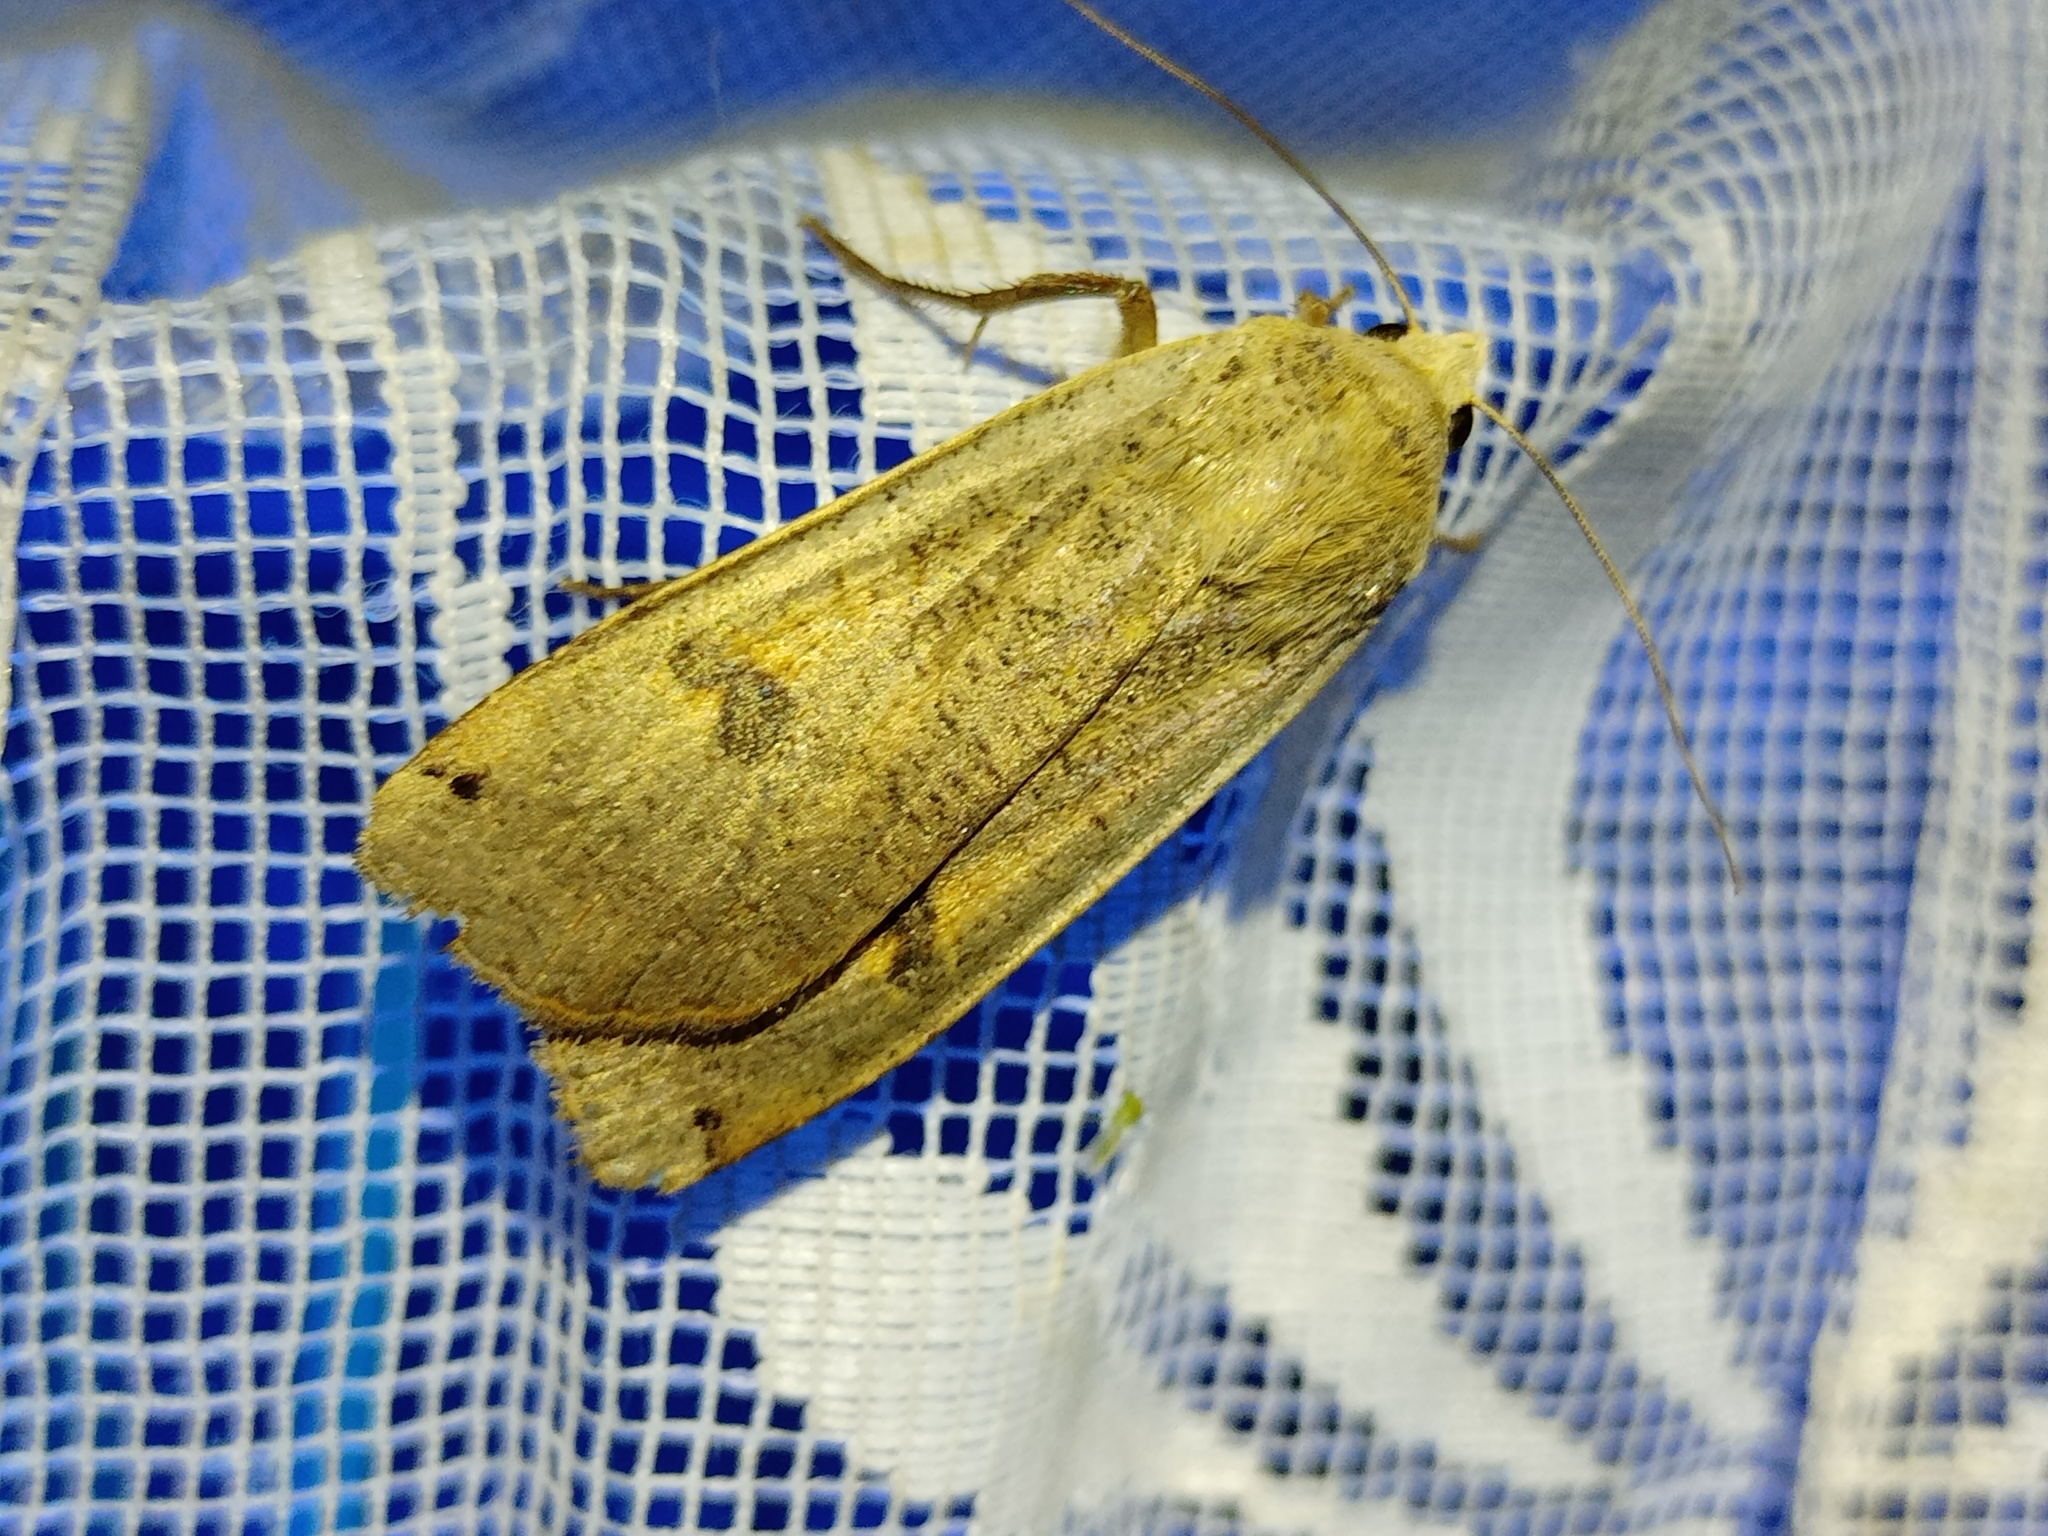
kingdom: Animalia
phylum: Arthropoda
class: Insecta
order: Lepidoptera
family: Noctuidae
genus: Noctua
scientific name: Noctua pronuba
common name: Large yellow underwing
